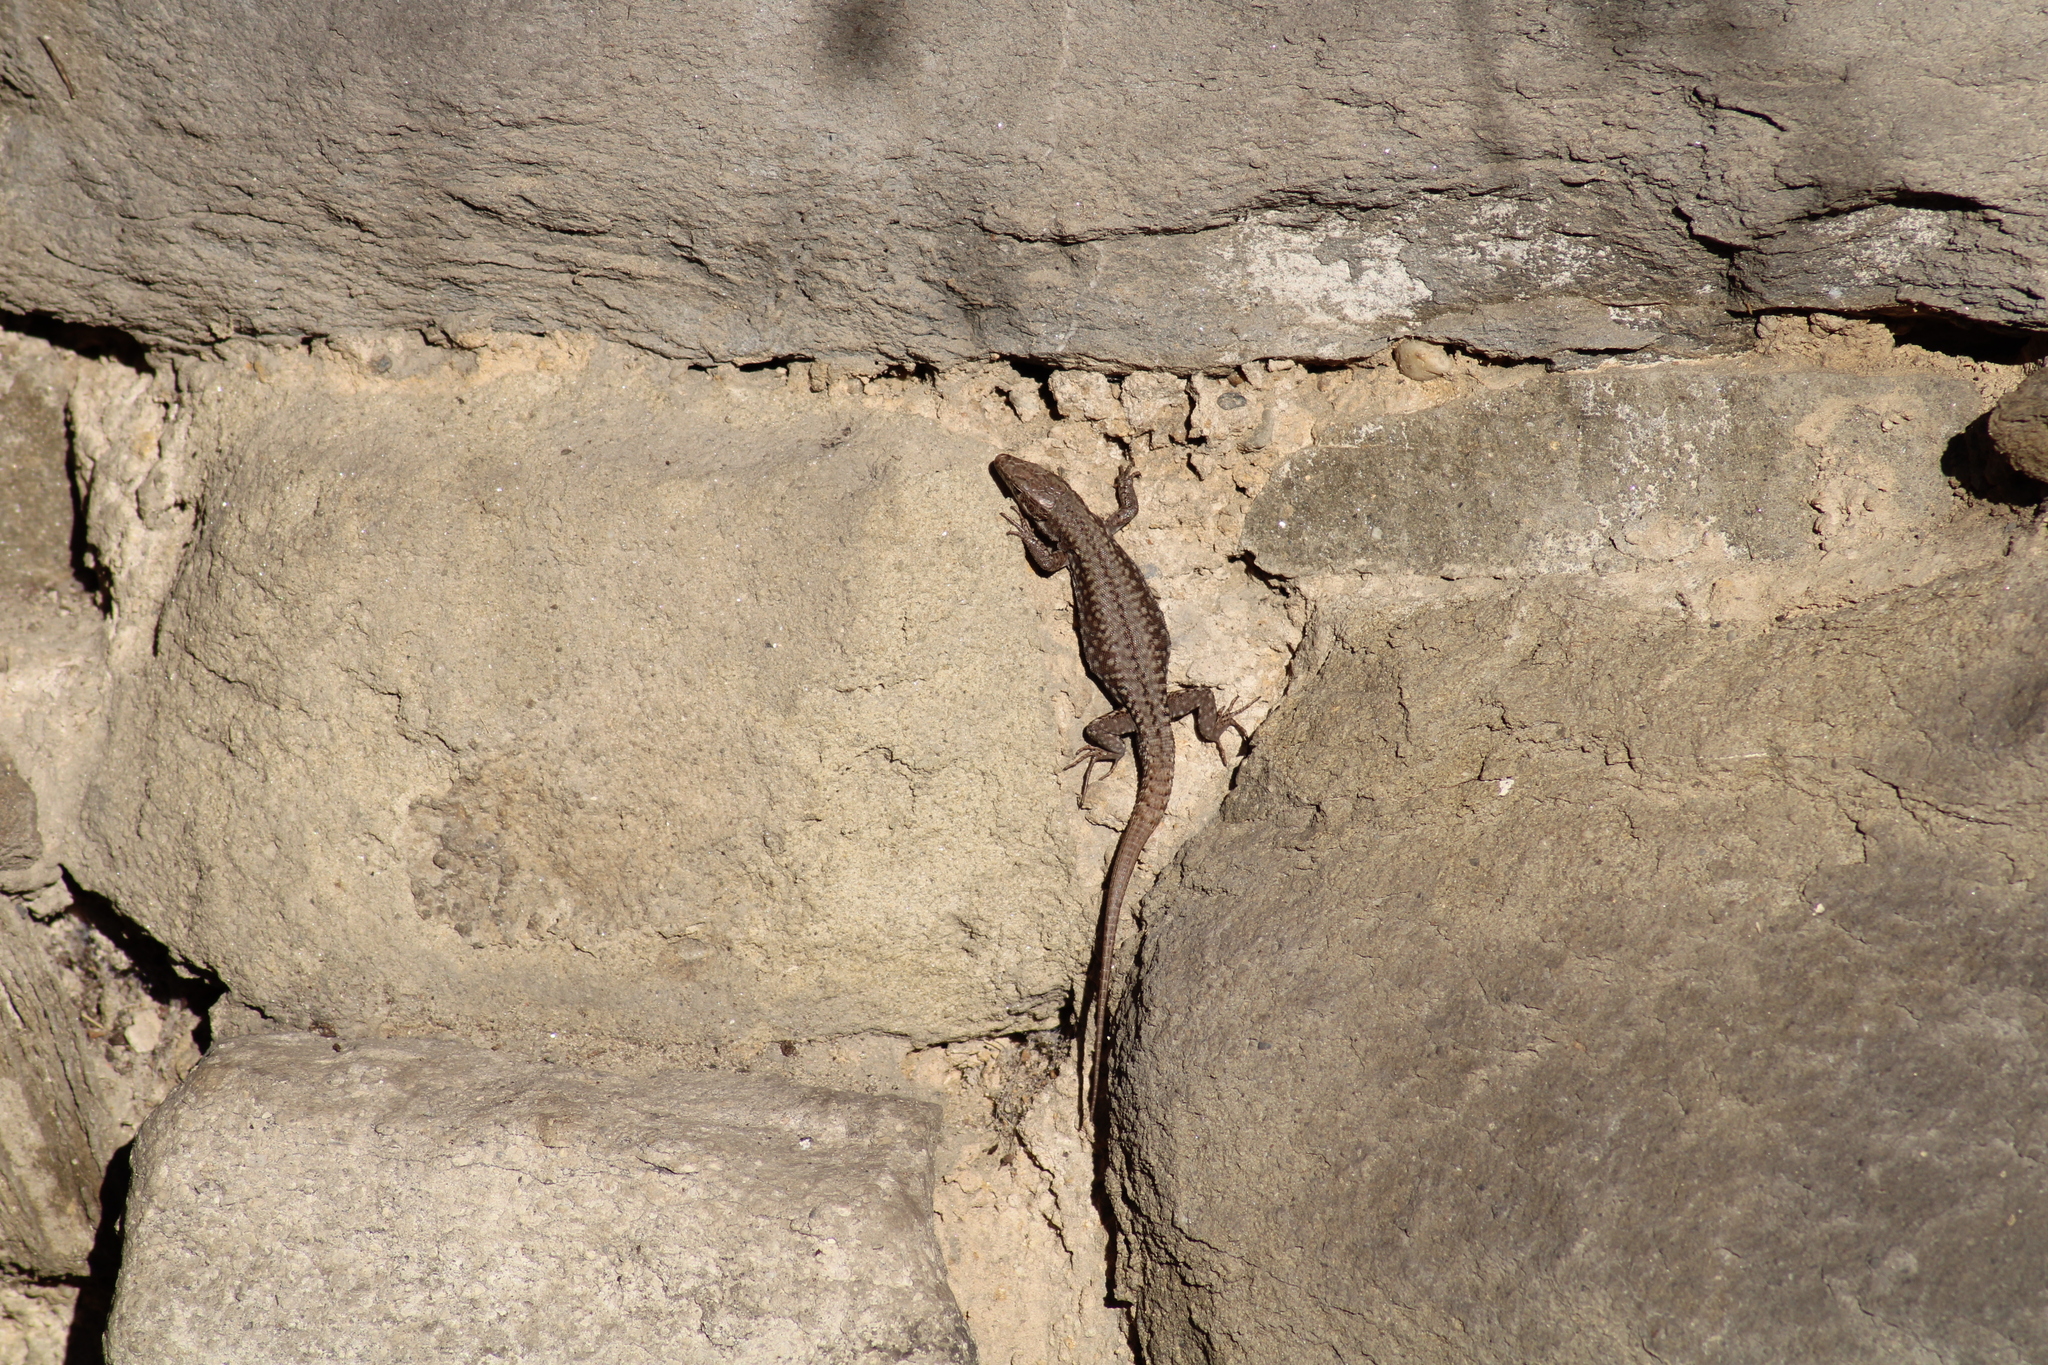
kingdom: Animalia
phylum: Chordata
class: Squamata
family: Lacertidae
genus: Podarcis
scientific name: Podarcis muralis
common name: Common wall lizard
